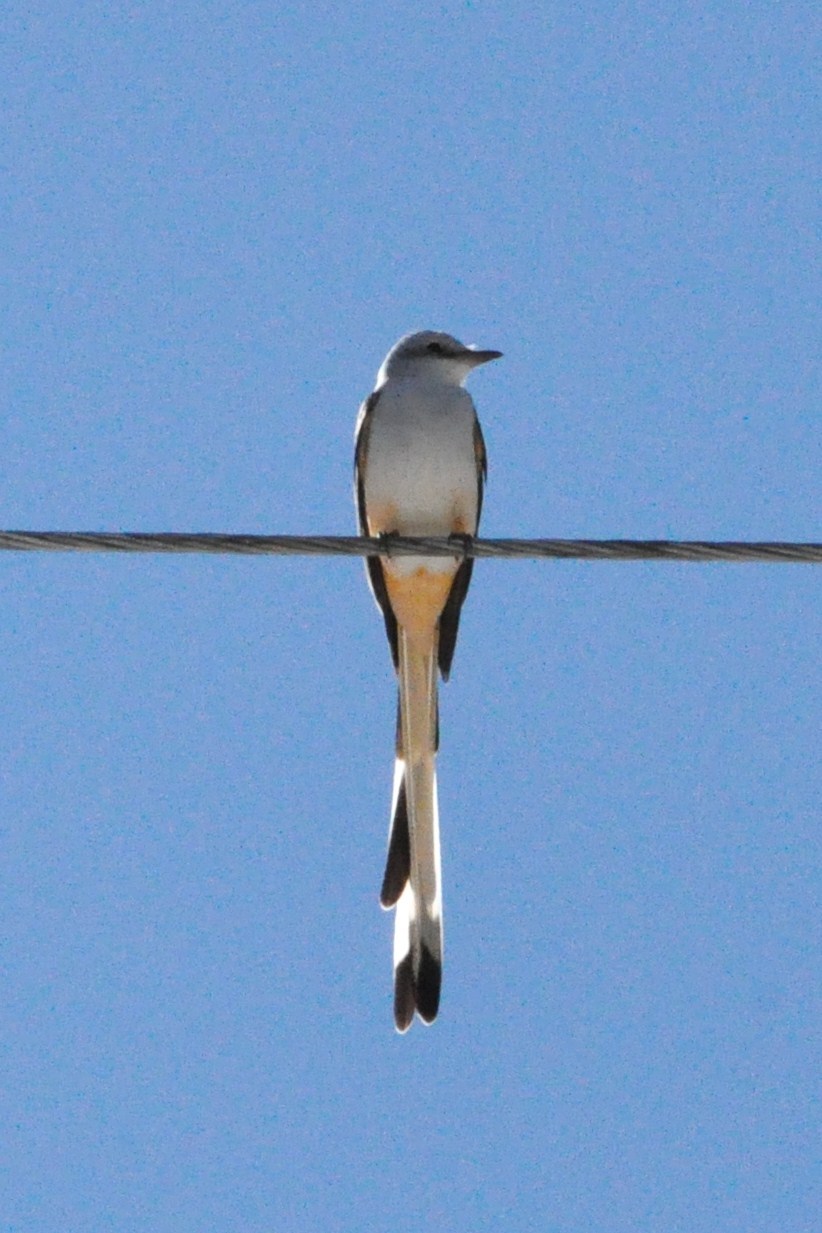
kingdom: Animalia
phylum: Chordata
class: Aves
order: Passeriformes
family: Tyrannidae
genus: Tyrannus
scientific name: Tyrannus forficatus
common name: Scissor-tailed flycatcher
